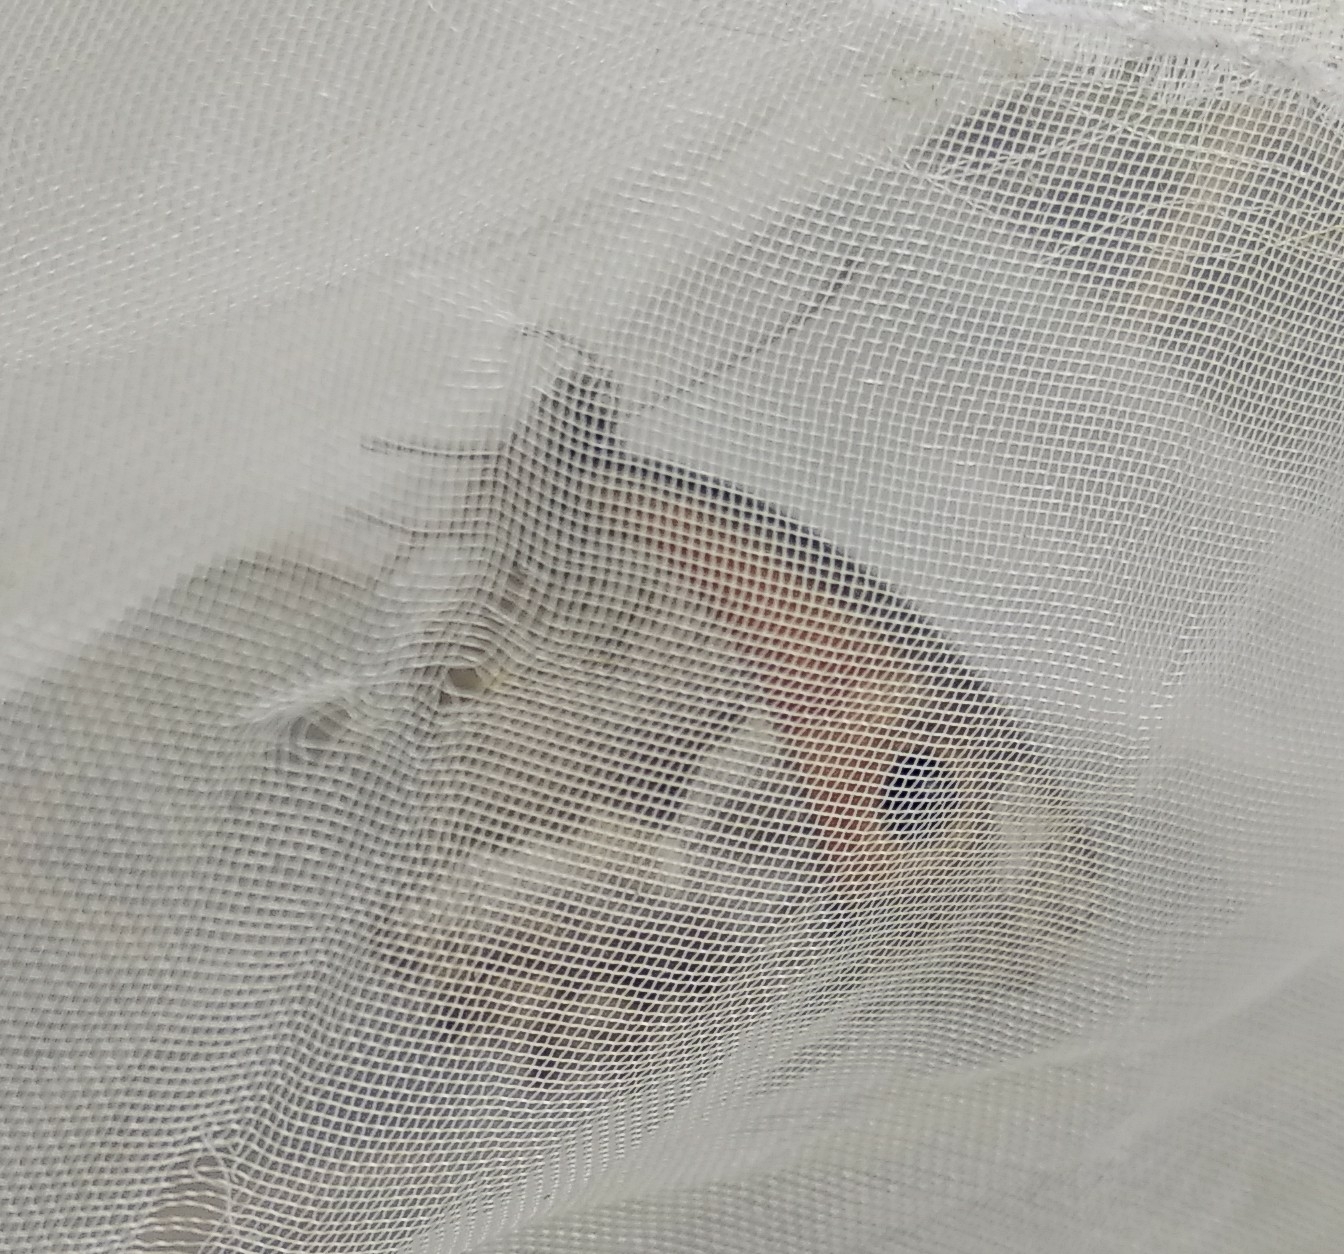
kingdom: Animalia
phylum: Arthropoda
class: Insecta
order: Lepidoptera
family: Nymphalidae
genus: Pyronia
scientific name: Pyronia tithonus
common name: Gatekeeper
